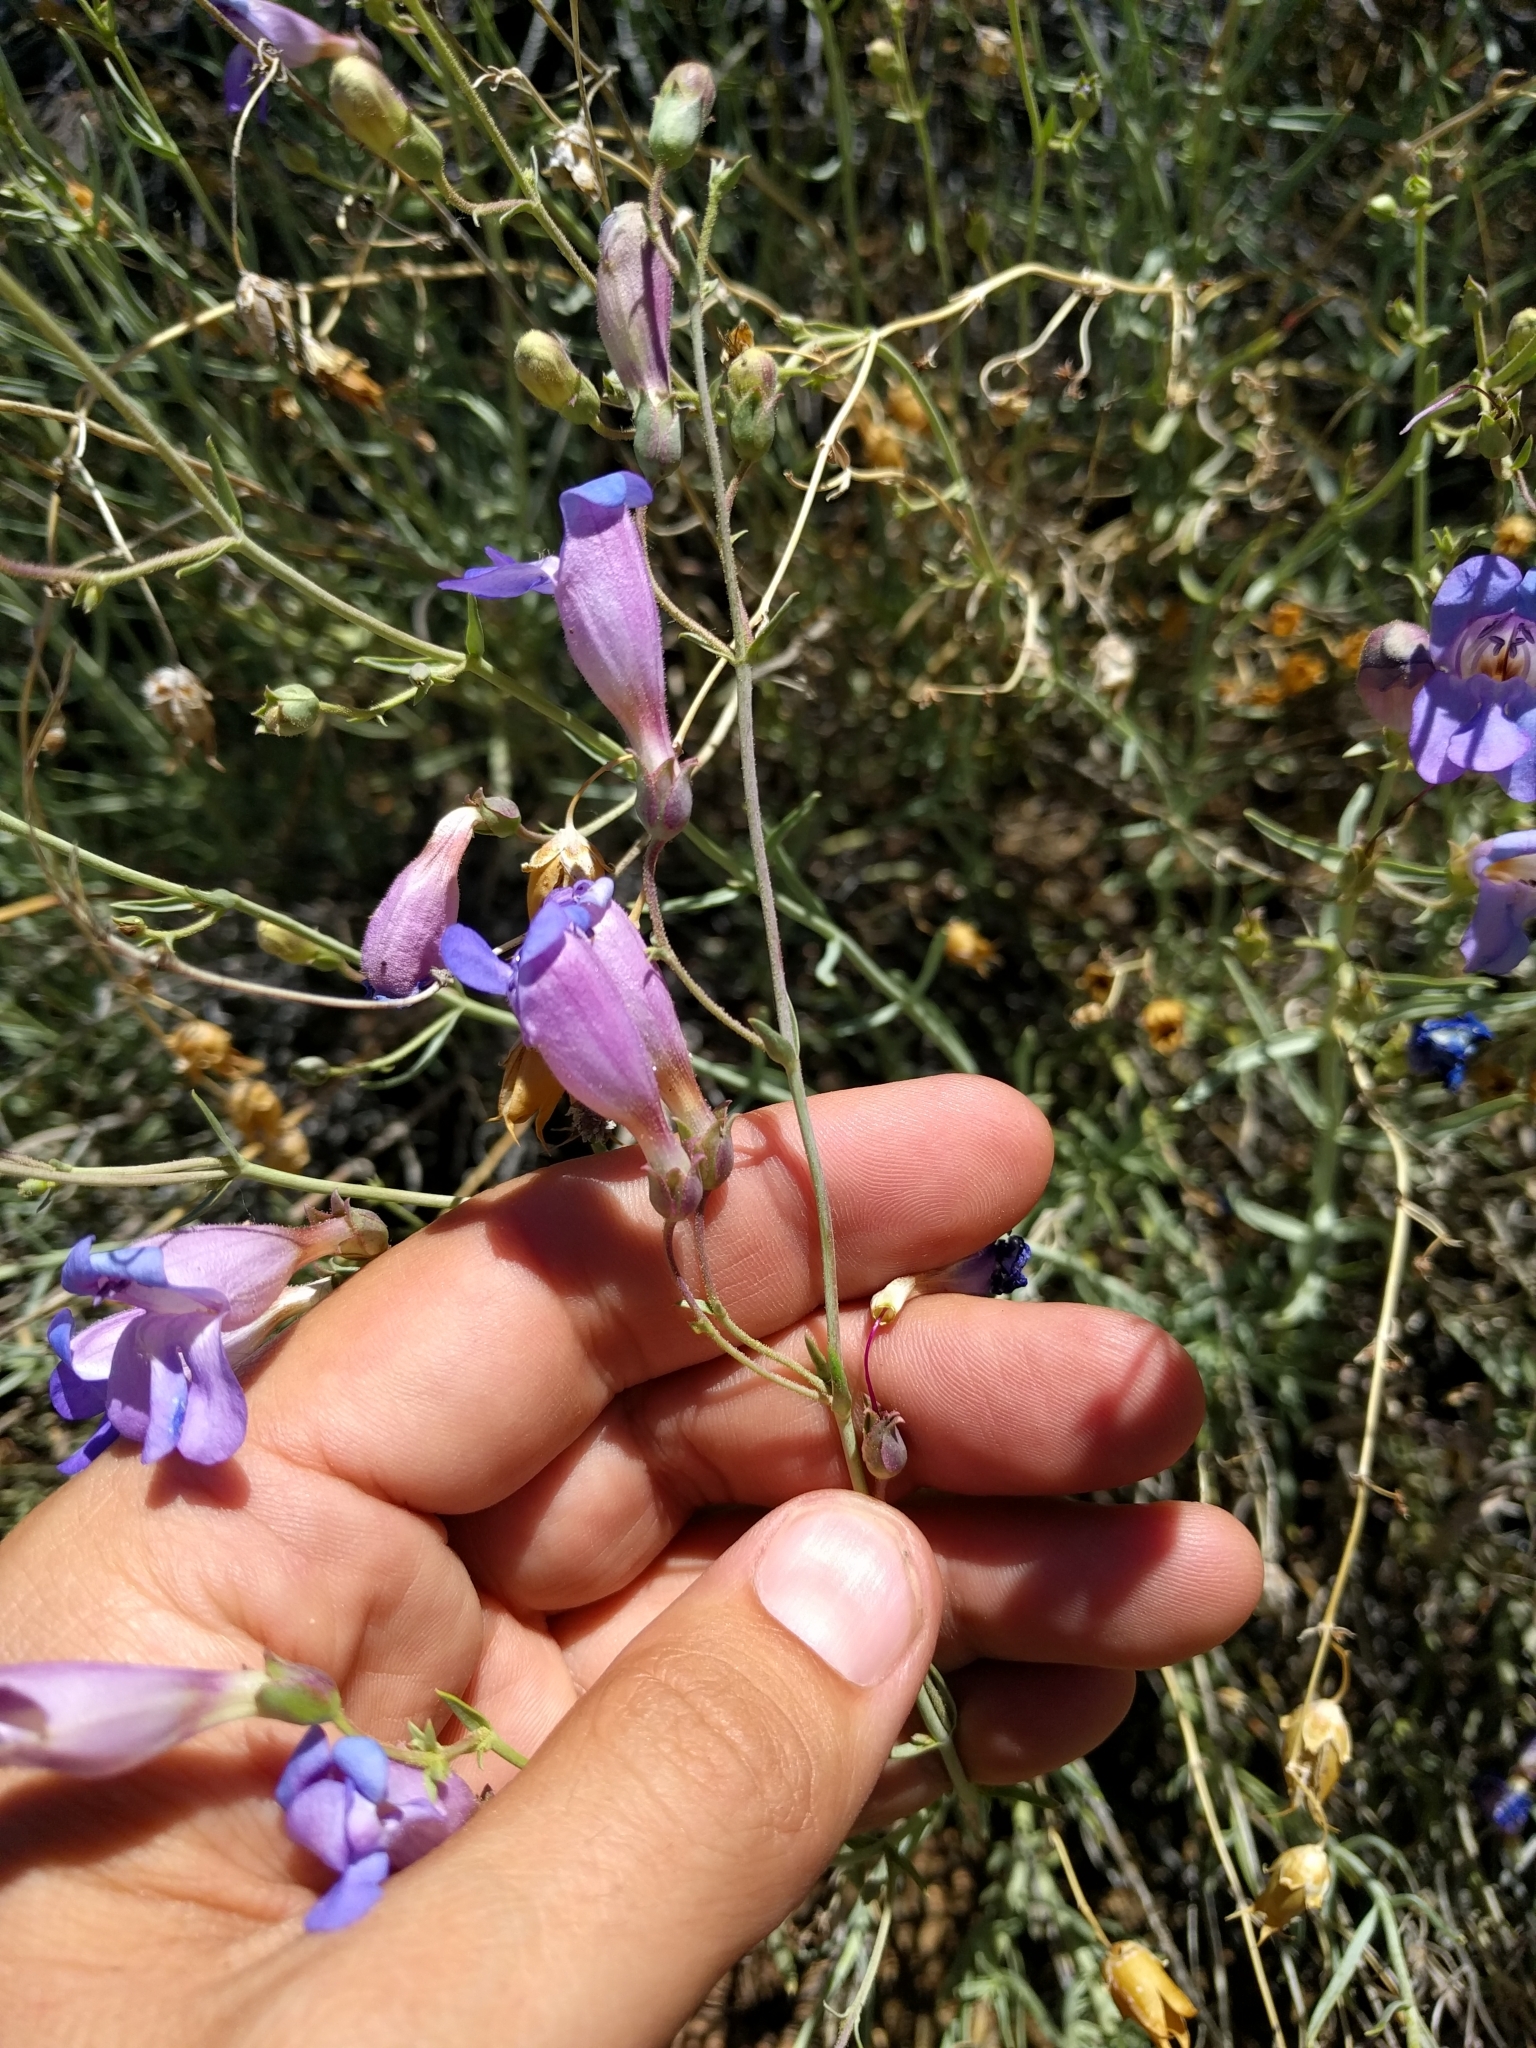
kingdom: Plantae
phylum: Tracheophyta
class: Magnoliopsida
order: Lamiales
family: Plantaginaceae
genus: Penstemon
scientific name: Penstemon incertus
